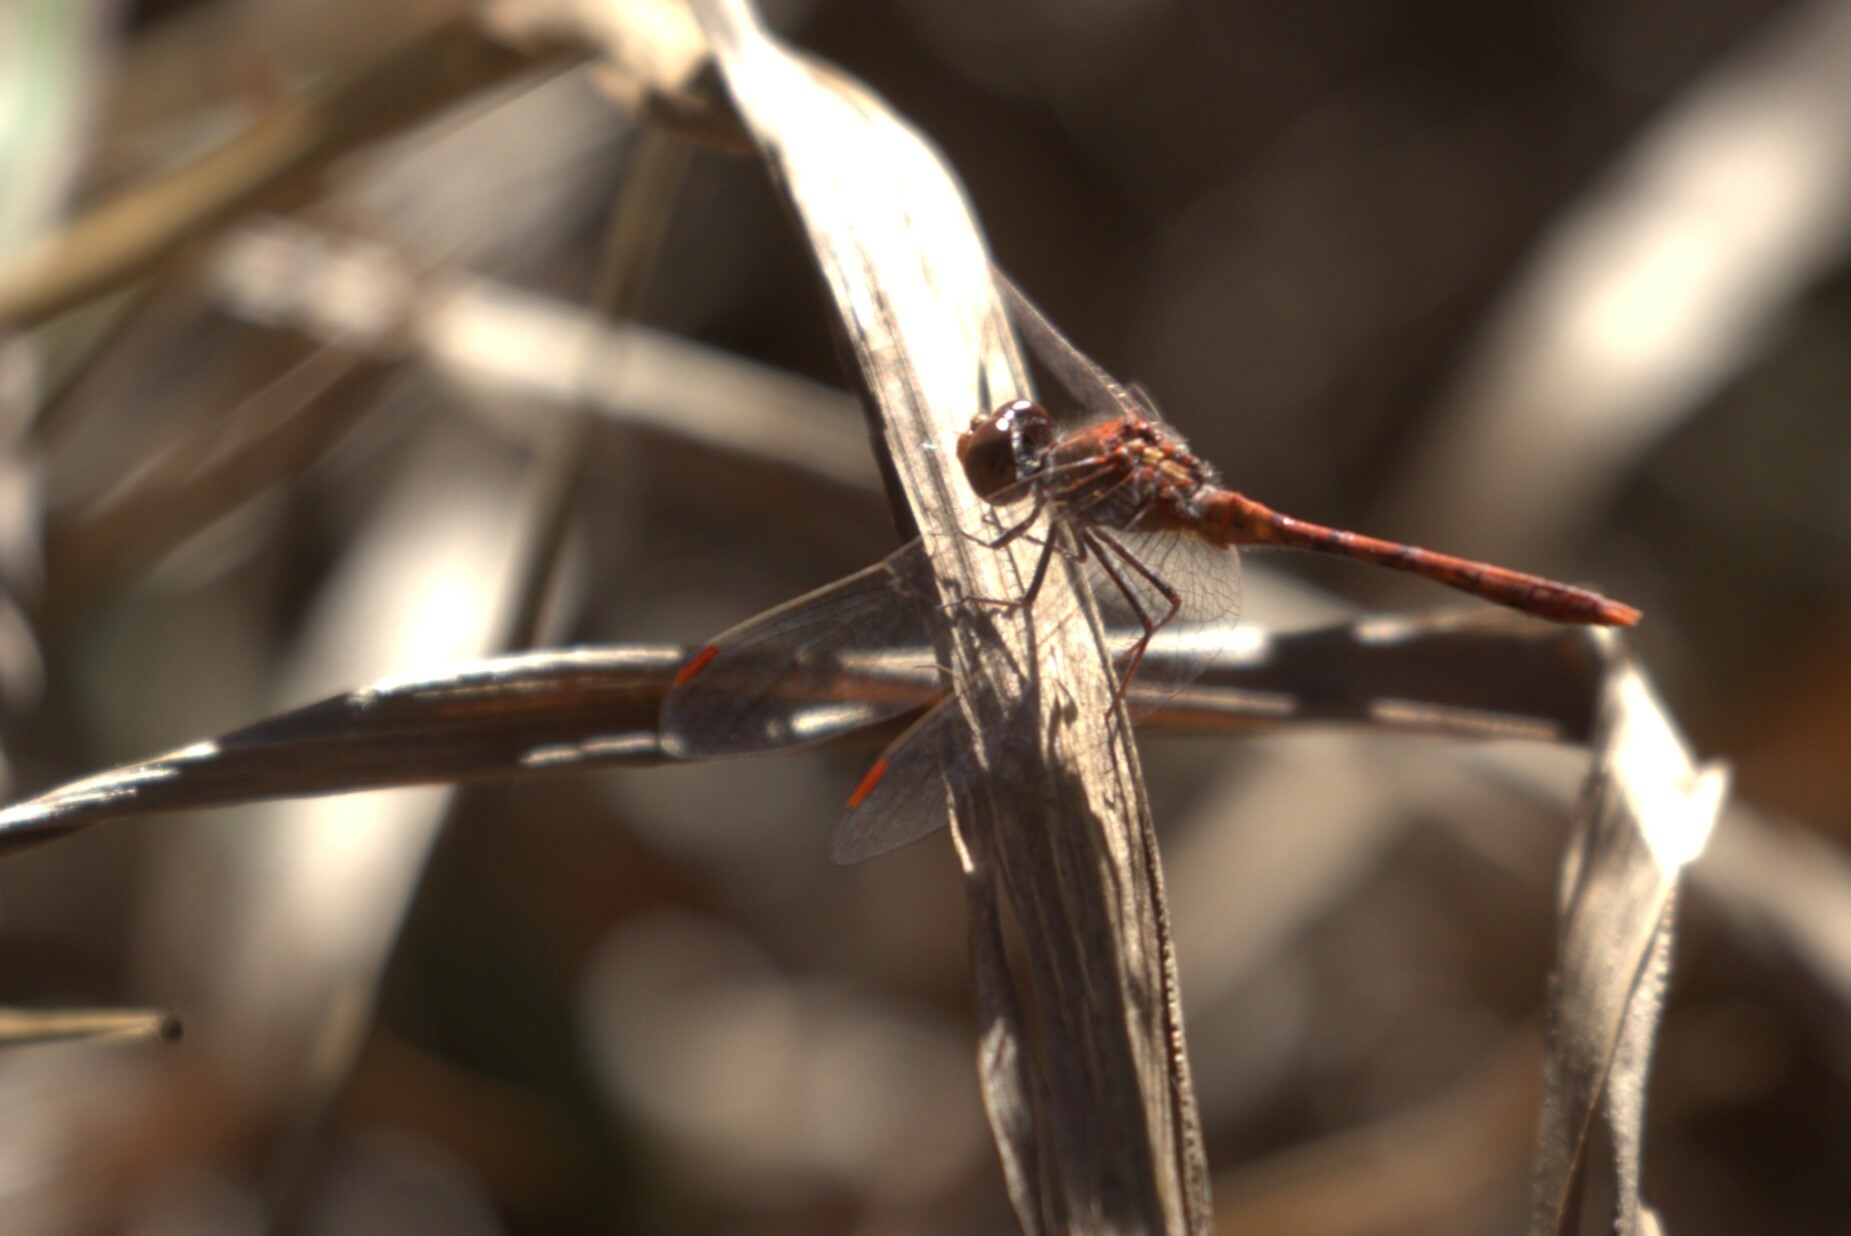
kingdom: Animalia
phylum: Arthropoda
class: Insecta
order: Odonata
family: Libellulidae
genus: Diplacodes
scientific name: Diplacodes bipunctata
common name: Red percher dragonfly
